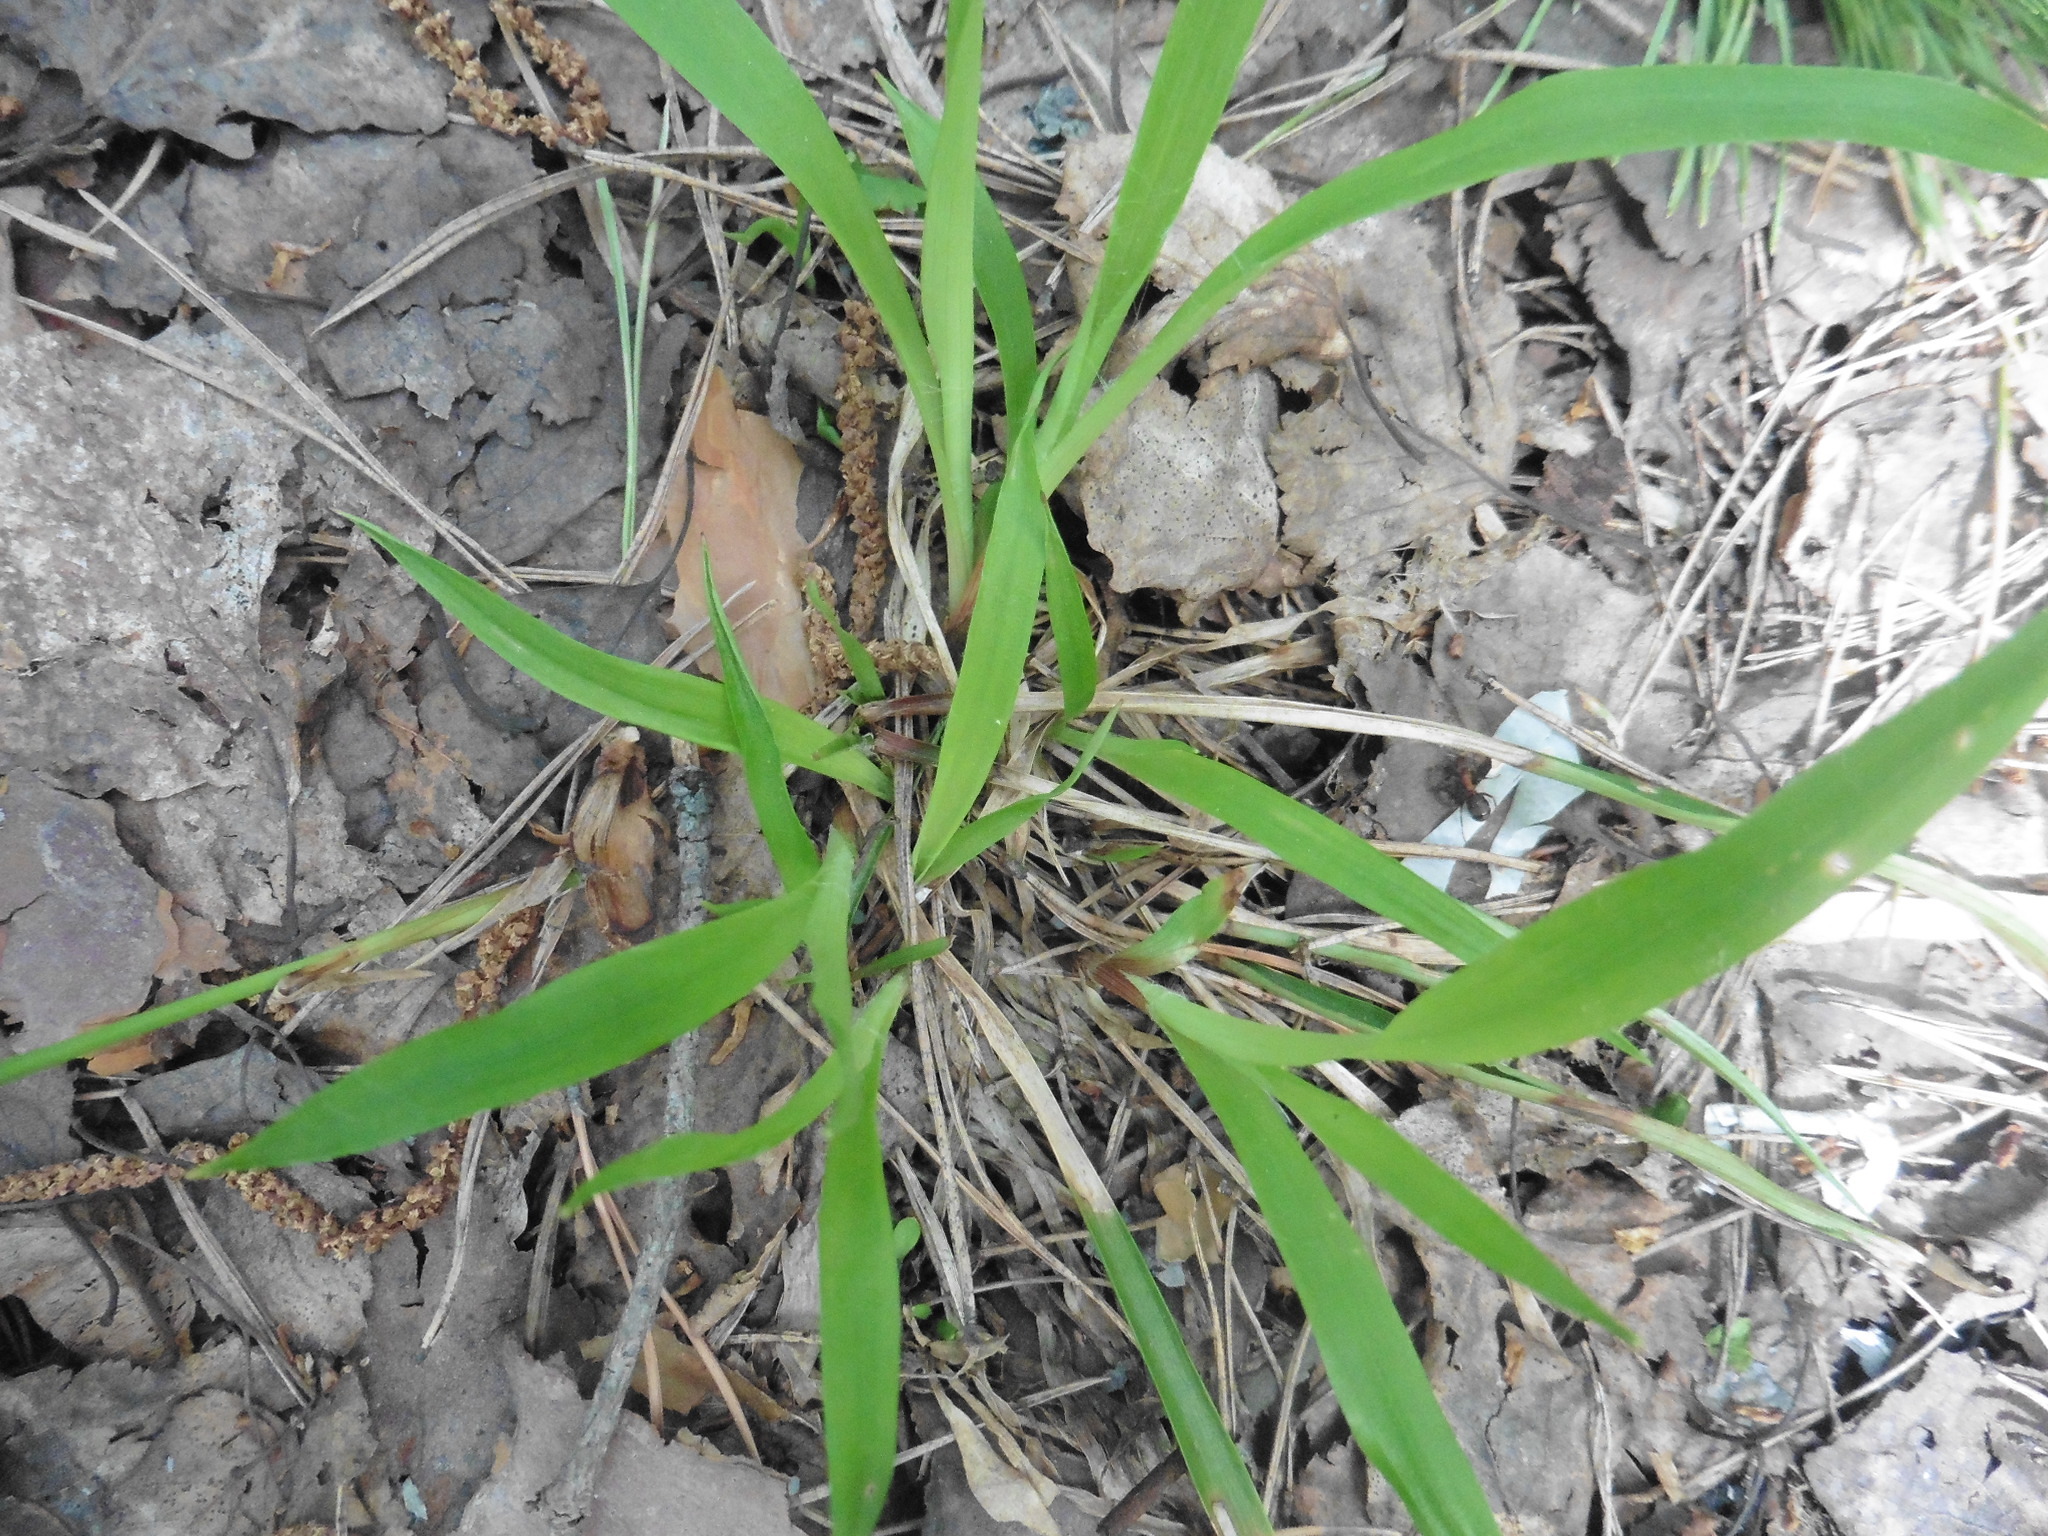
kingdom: Plantae
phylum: Tracheophyta
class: Liliopsida
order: Poales
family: Juncaceae
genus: Luzula
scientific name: Luzula pilosa
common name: Hairy wood-rush
